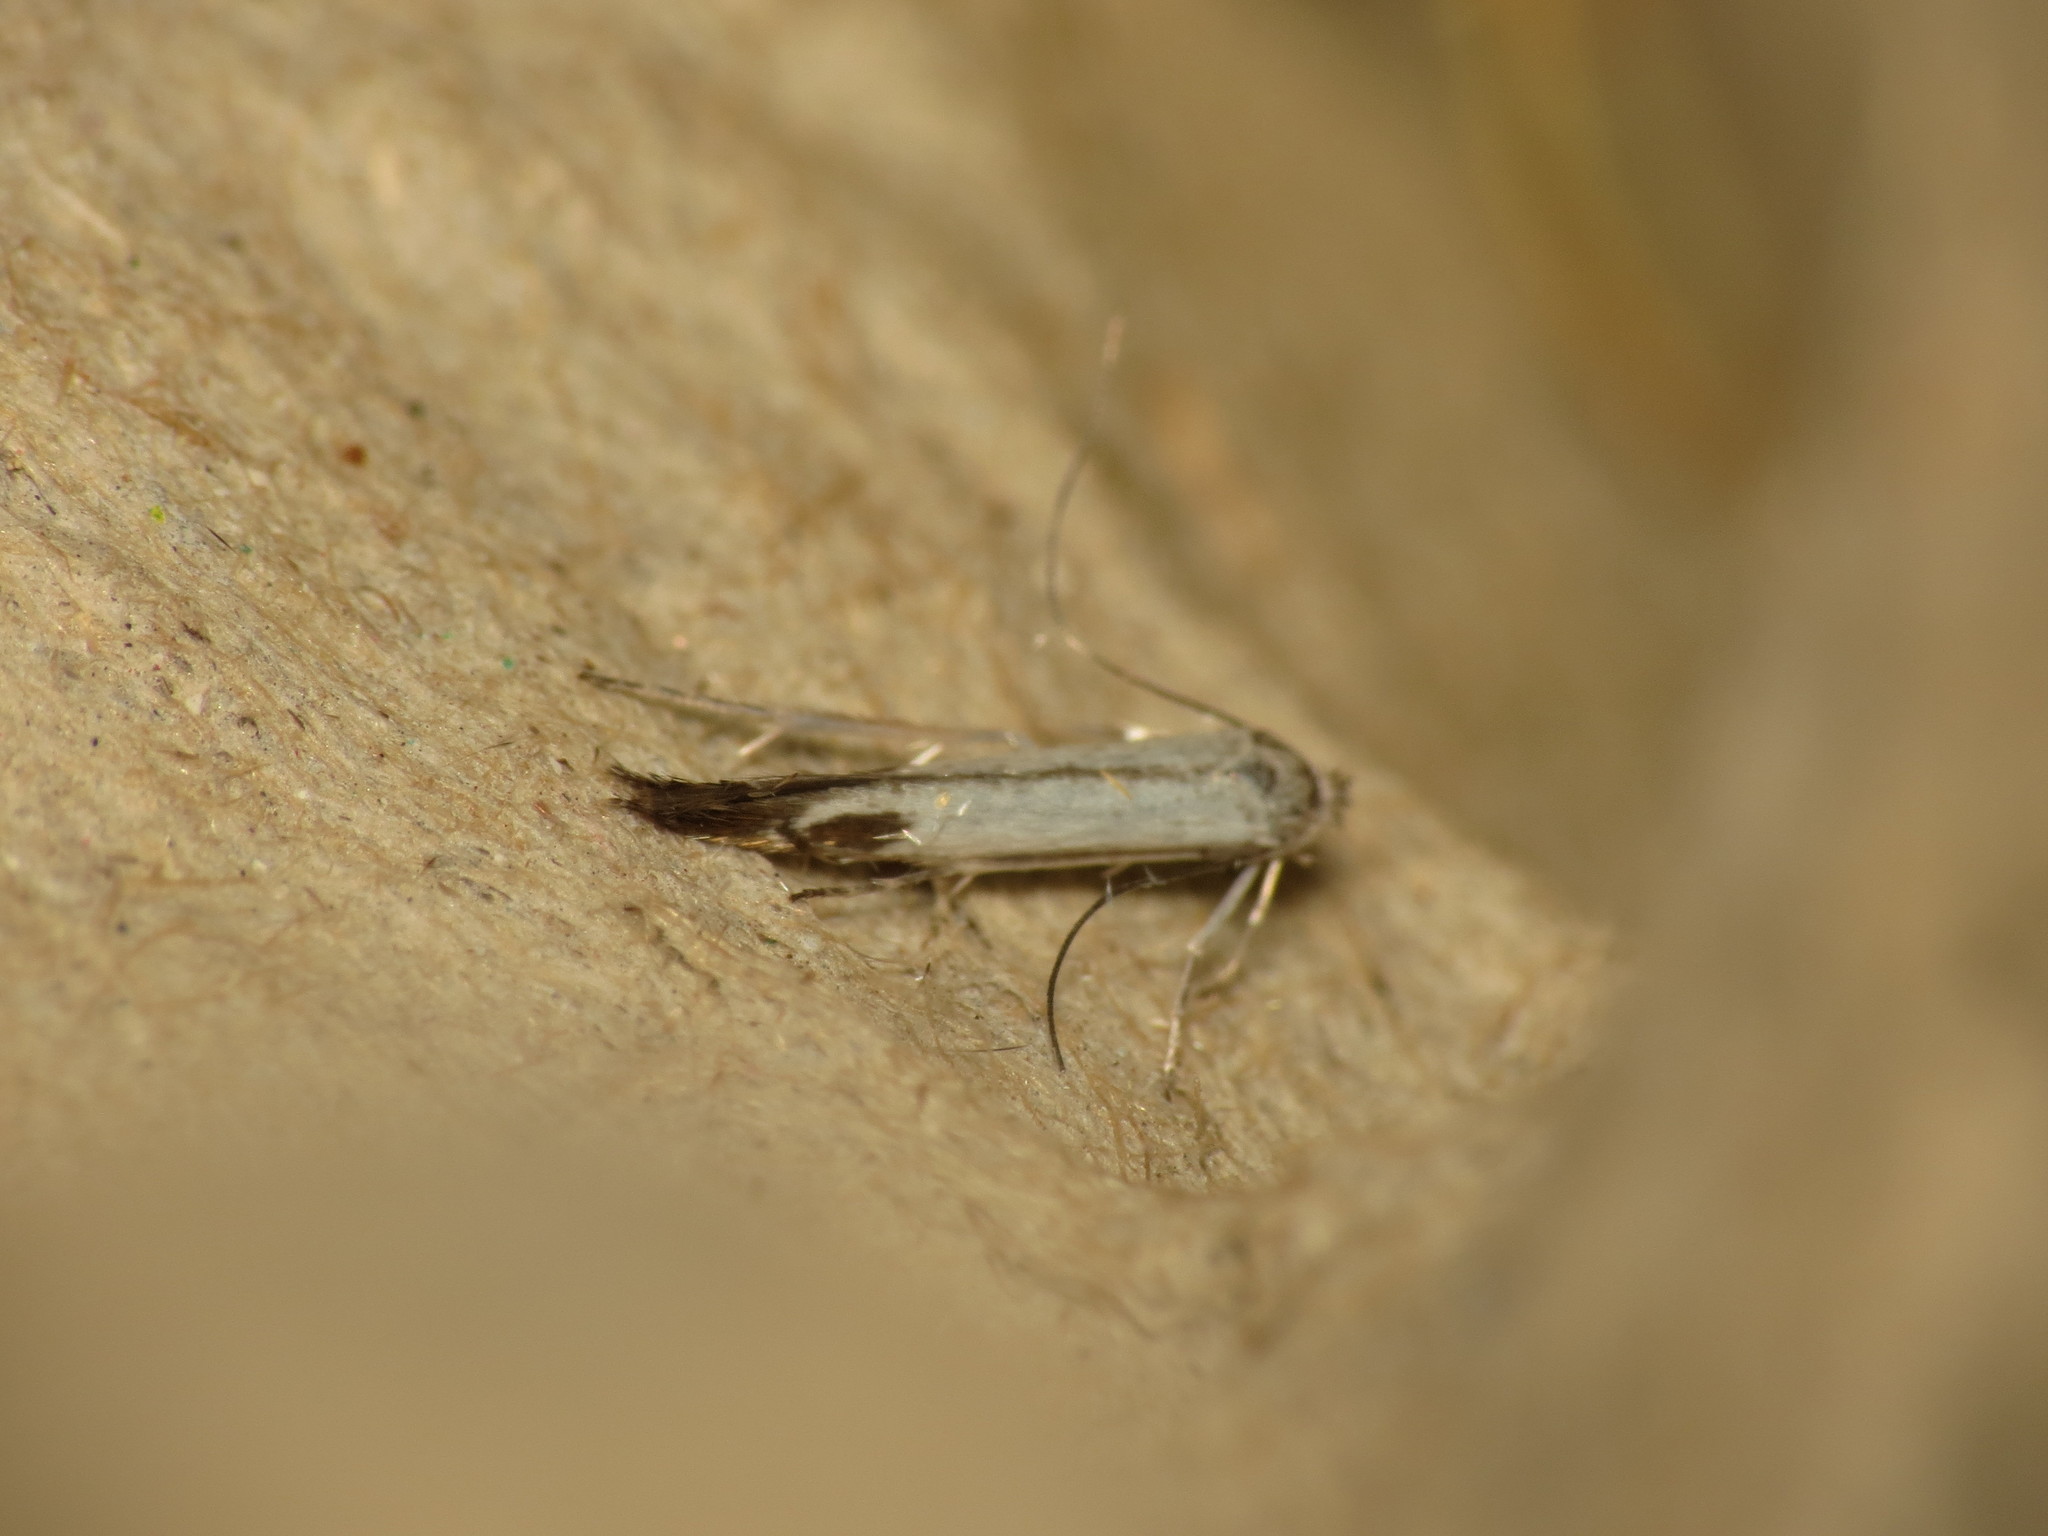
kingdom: Animalia
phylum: Arthropoda
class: Insecta
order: Lepidoptera
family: Lyonetiidae
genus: Lyonetia
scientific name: Lyonetia clerkella
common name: Apple leaf miner
